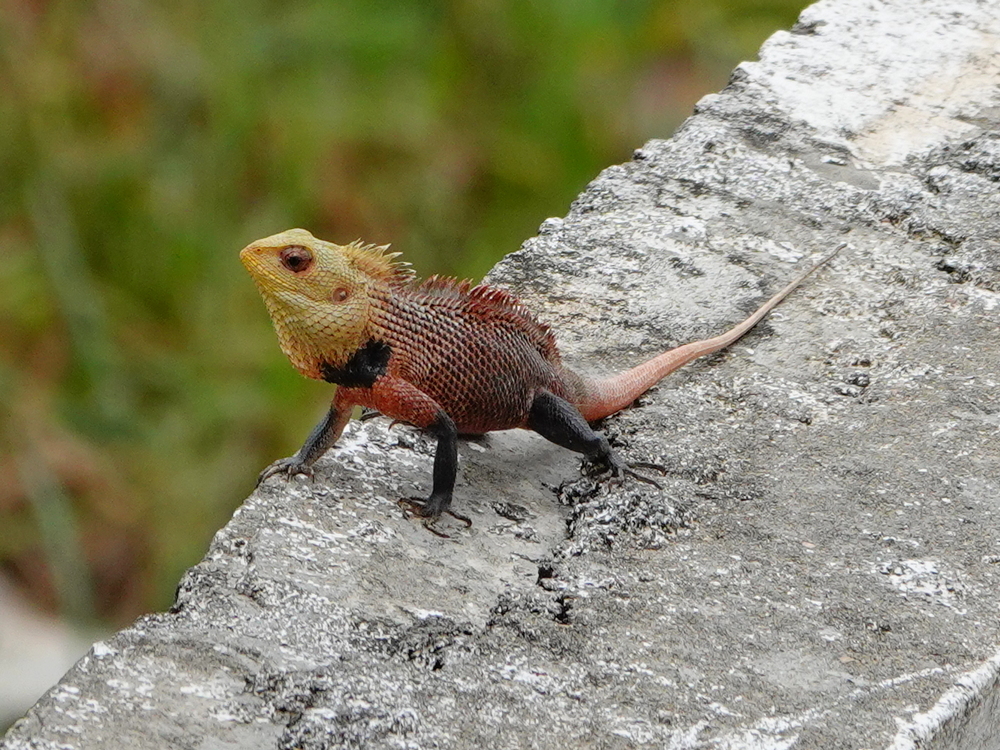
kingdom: Animalia
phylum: Chordata
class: Squamata
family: Agamidae
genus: Calotes
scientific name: Calotes versicolor
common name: Oriental garden lizard
